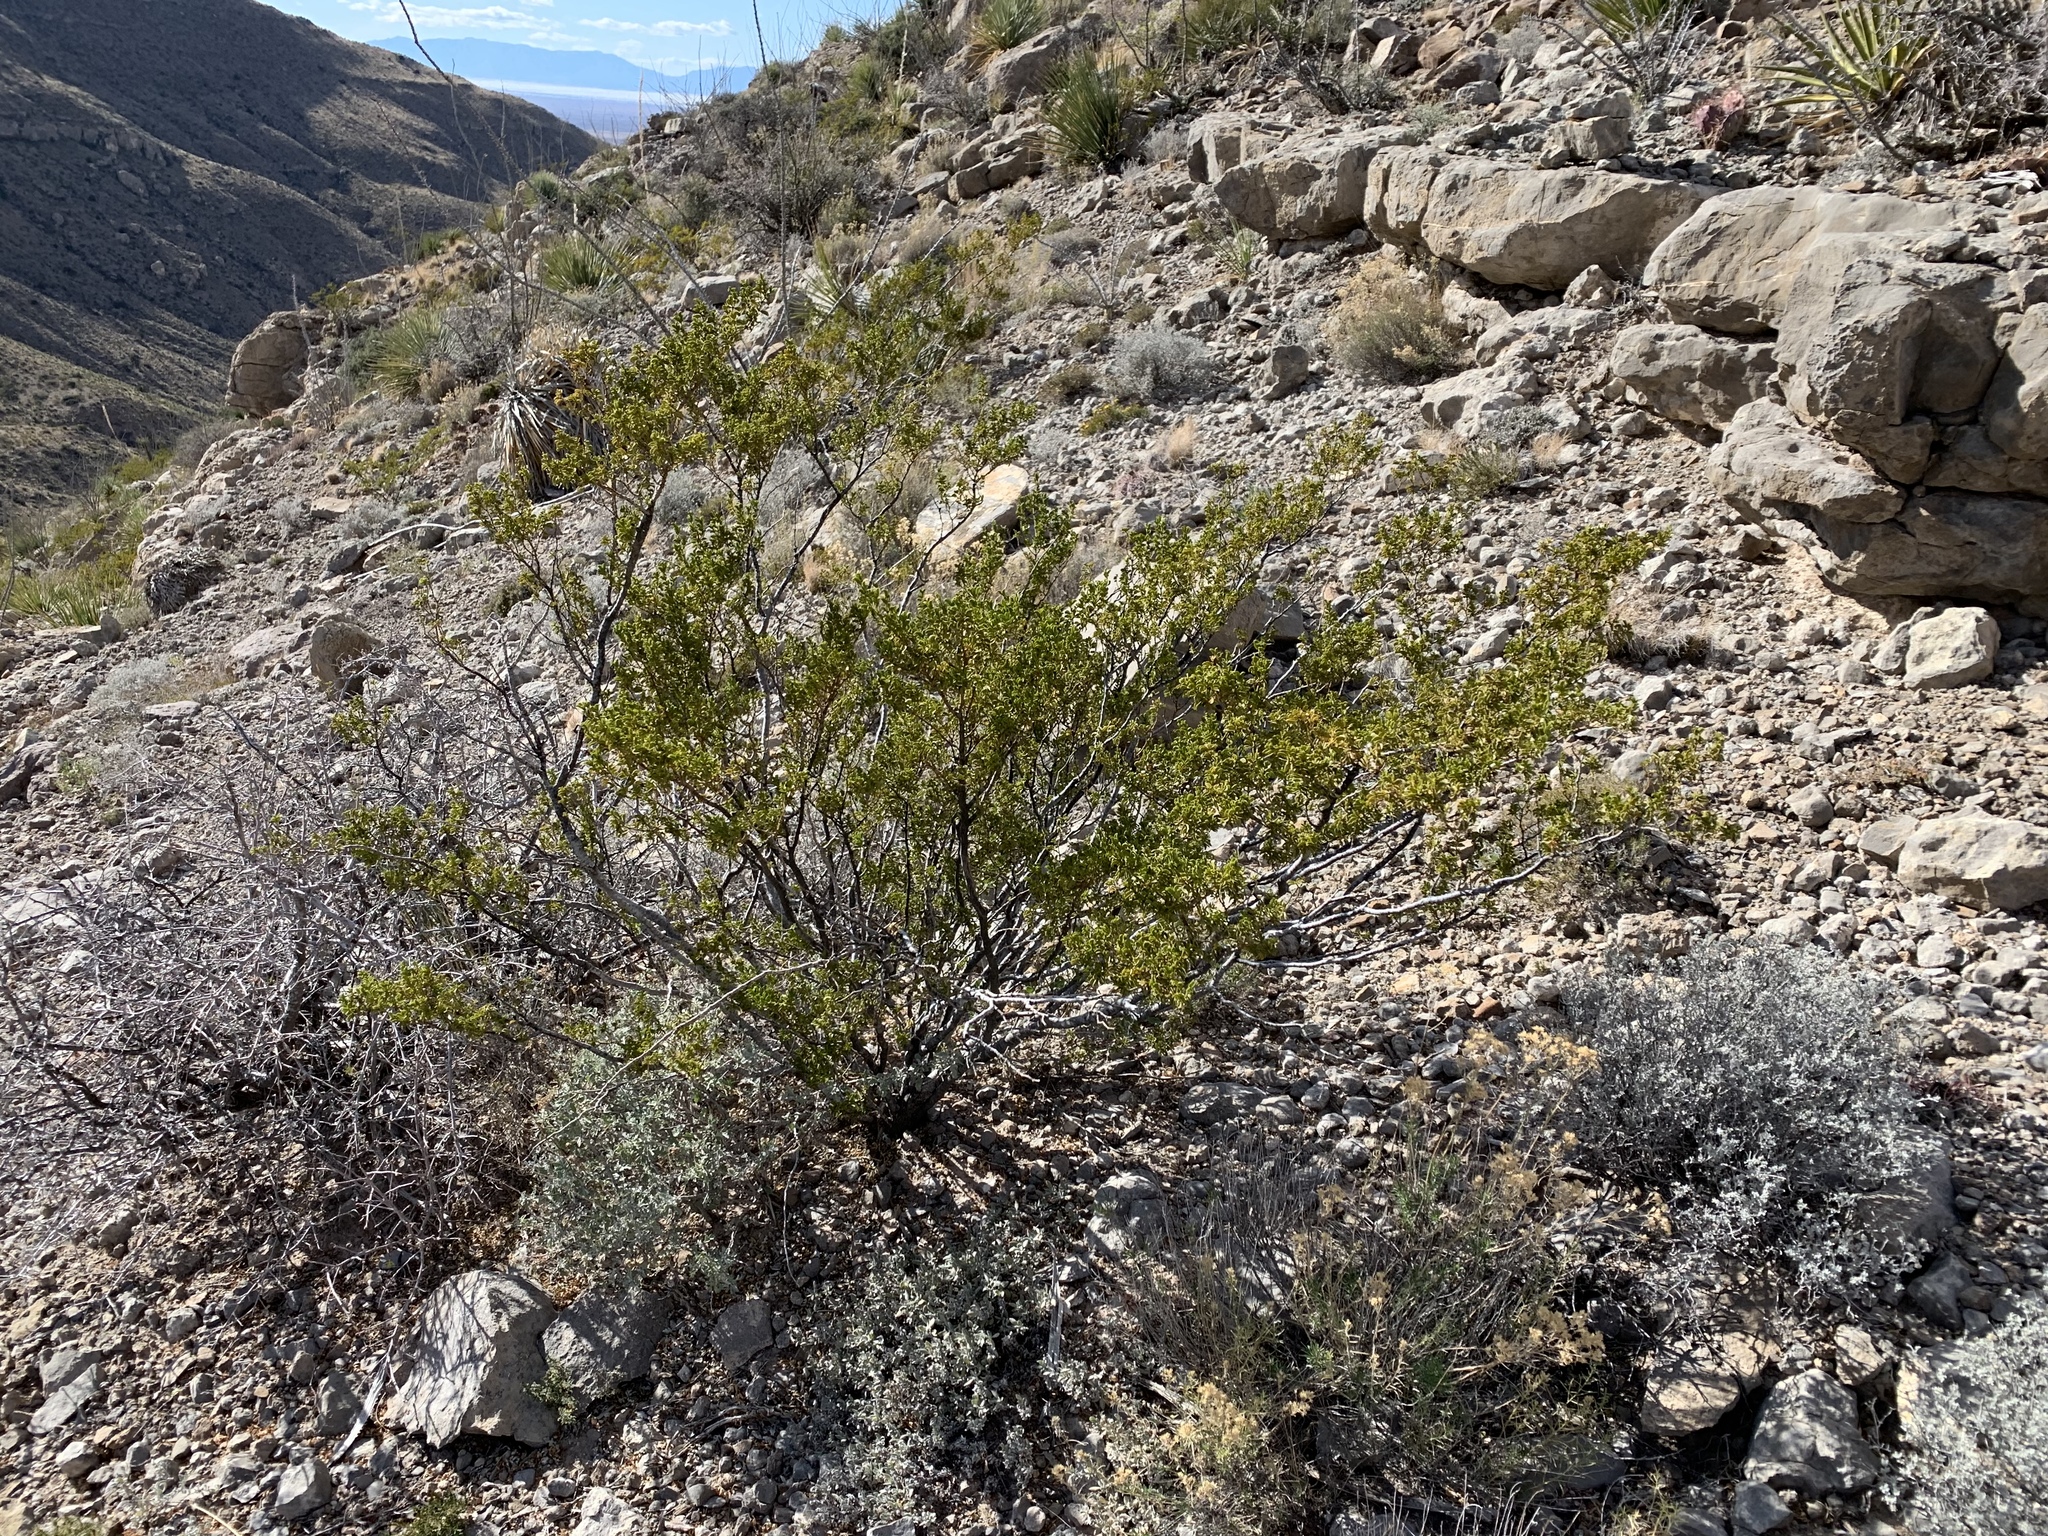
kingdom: Plantae
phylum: Tracheophyta
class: Magnoliopsida
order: Zygophyllales
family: Zygophyllaceae
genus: Larrea
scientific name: Larrea tridentata
